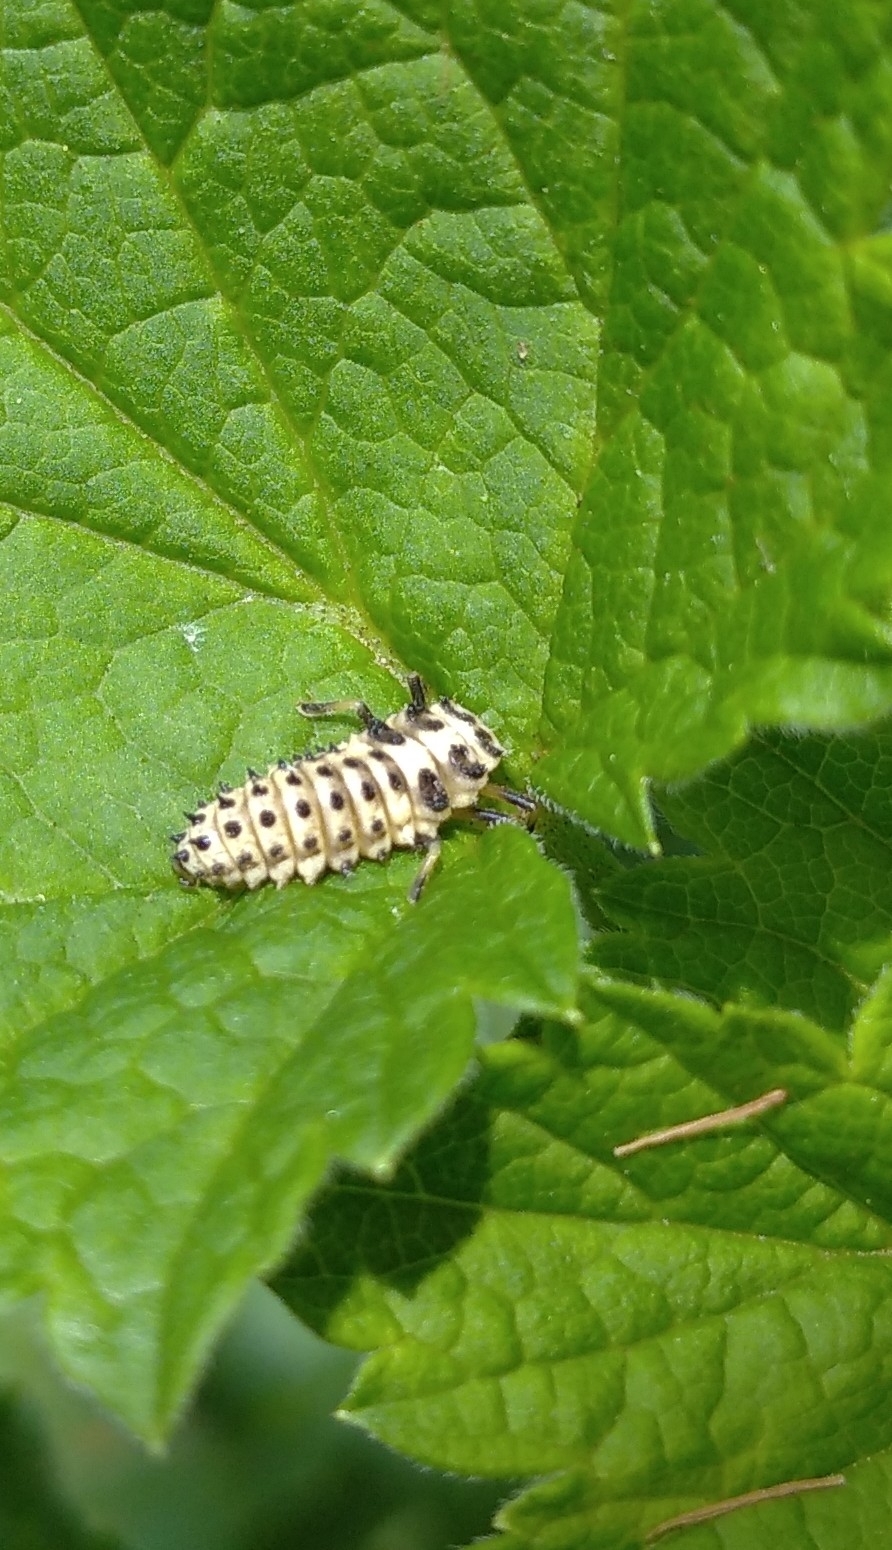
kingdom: Animalia
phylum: Arthropoda
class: Insecta
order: Coleoptera
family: Coccinellidae
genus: Sospita
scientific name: Sospita vigintiguttata
